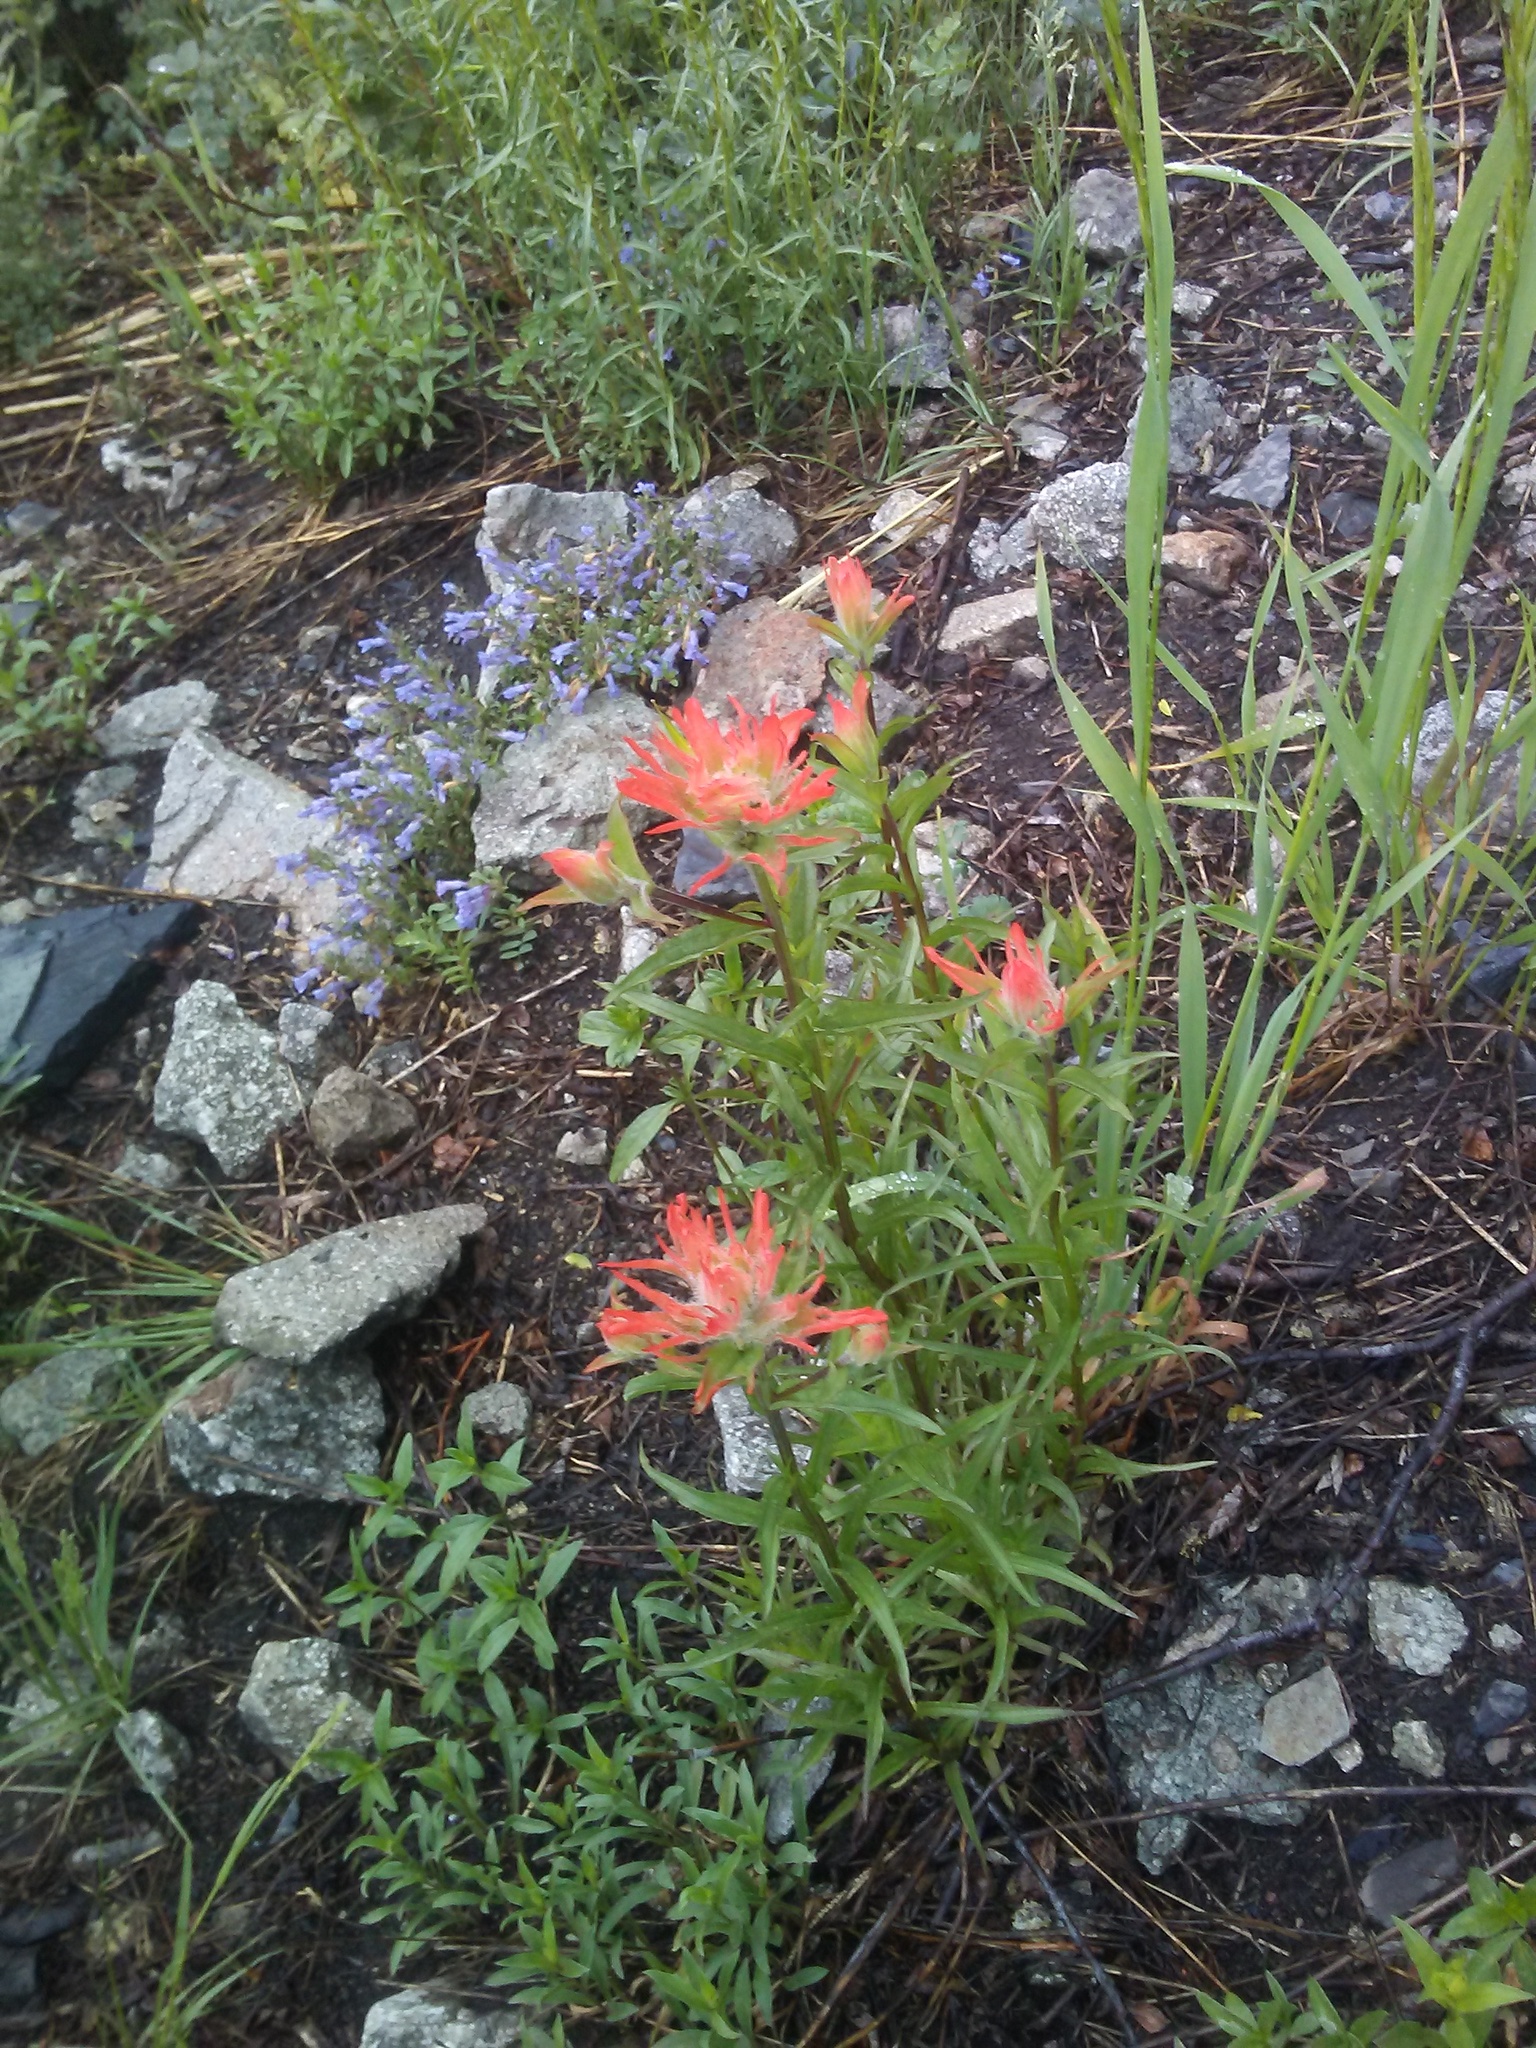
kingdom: Plantae
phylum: Tracheophyta
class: Magnoliopsida
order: Lamiales
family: Orobanchaceae
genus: Castilleja
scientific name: Castilleja miniata
